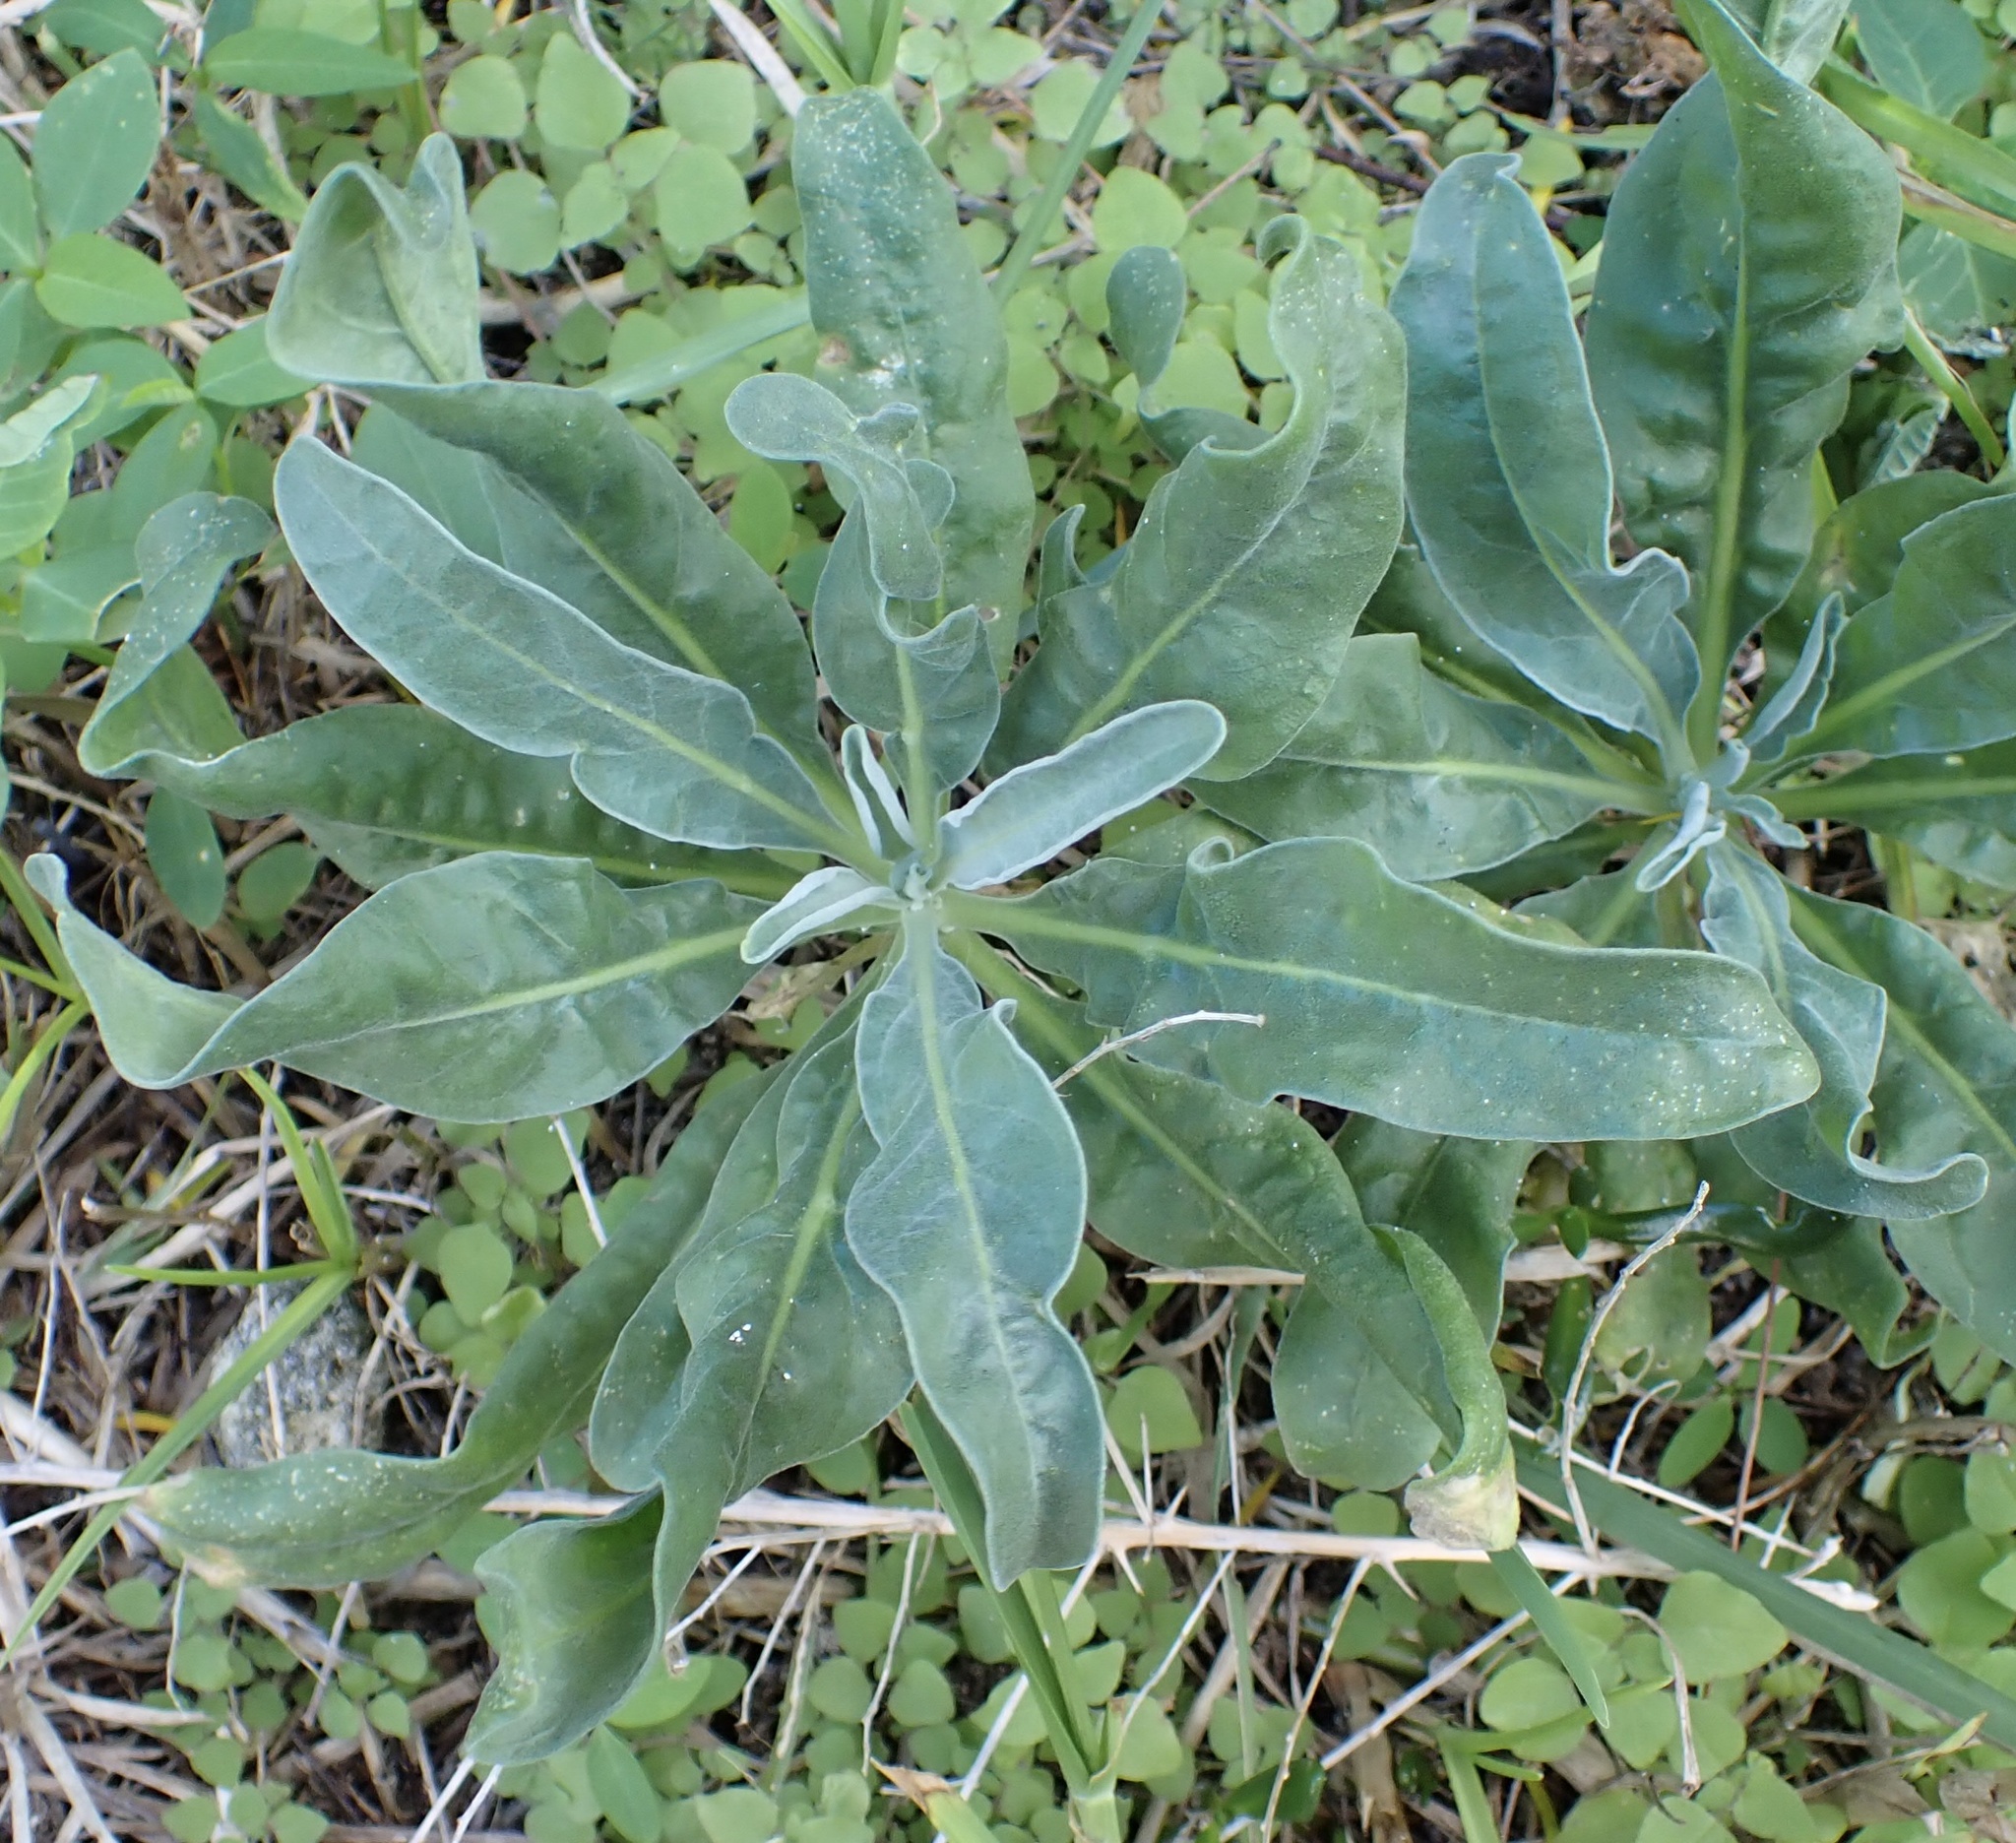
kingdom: Plantae
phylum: Tracheophyta
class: Magnoliopsida
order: Brassicales
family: Brassicaceae
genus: Matthiola
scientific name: Matthiola incana
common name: Hoary stock
